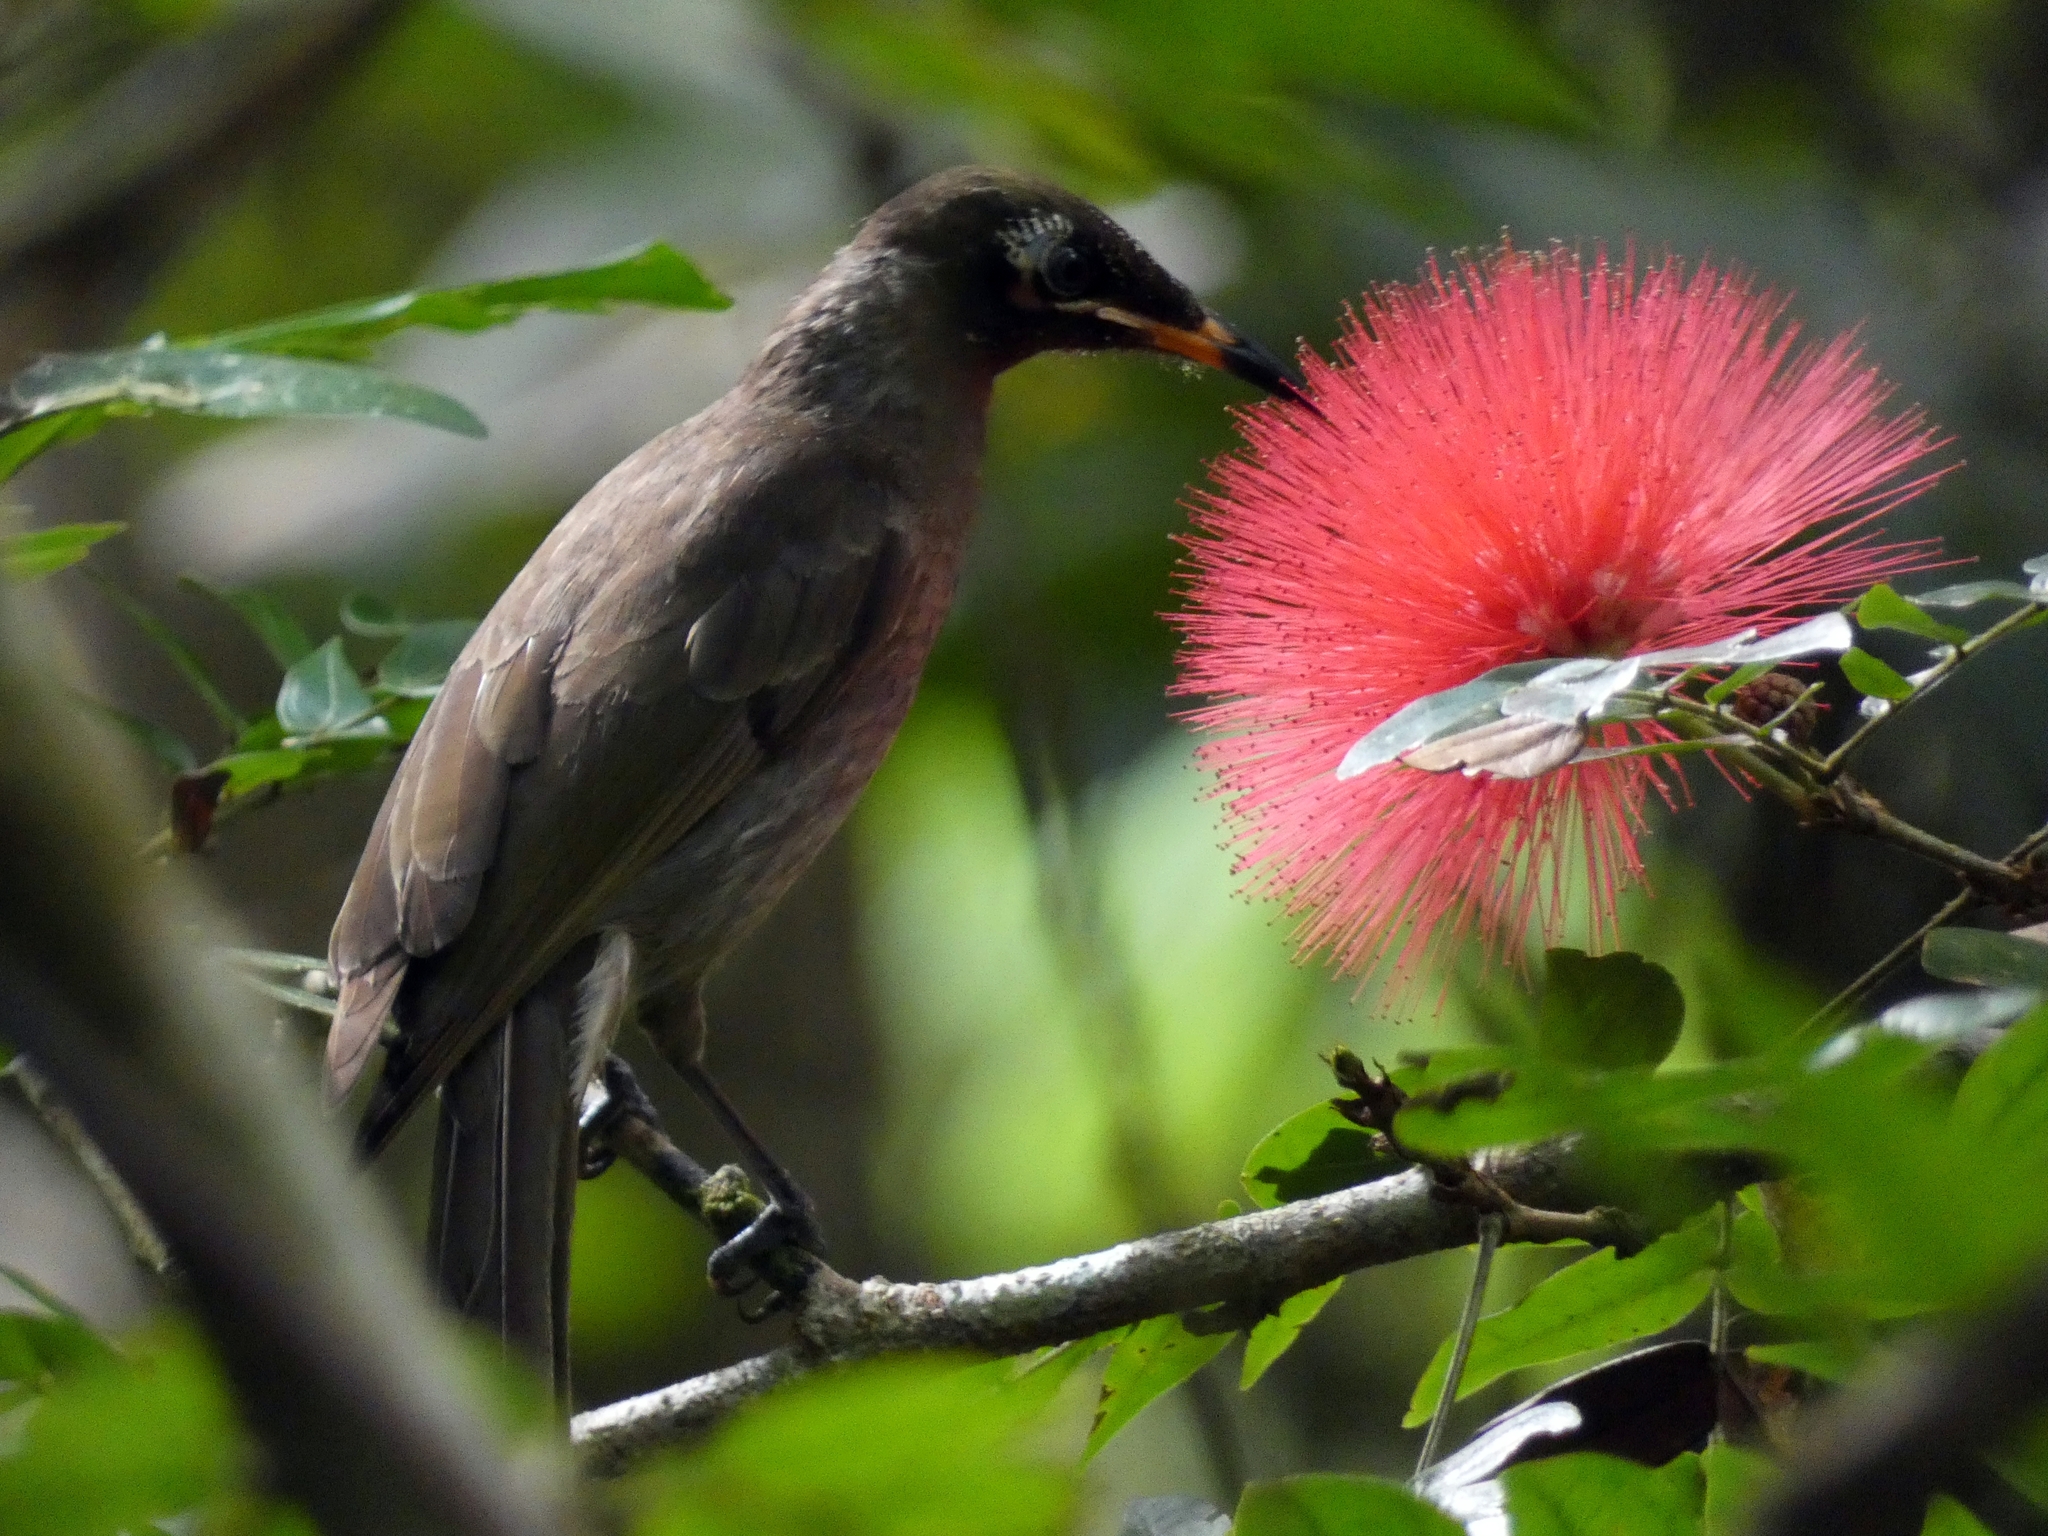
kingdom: Animalia
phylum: Chordata
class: Aves
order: Passeriformes
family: Meliphagidae
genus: Bolemoreus
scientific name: Bolemoreus frenatus
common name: Bridled honeyeater
